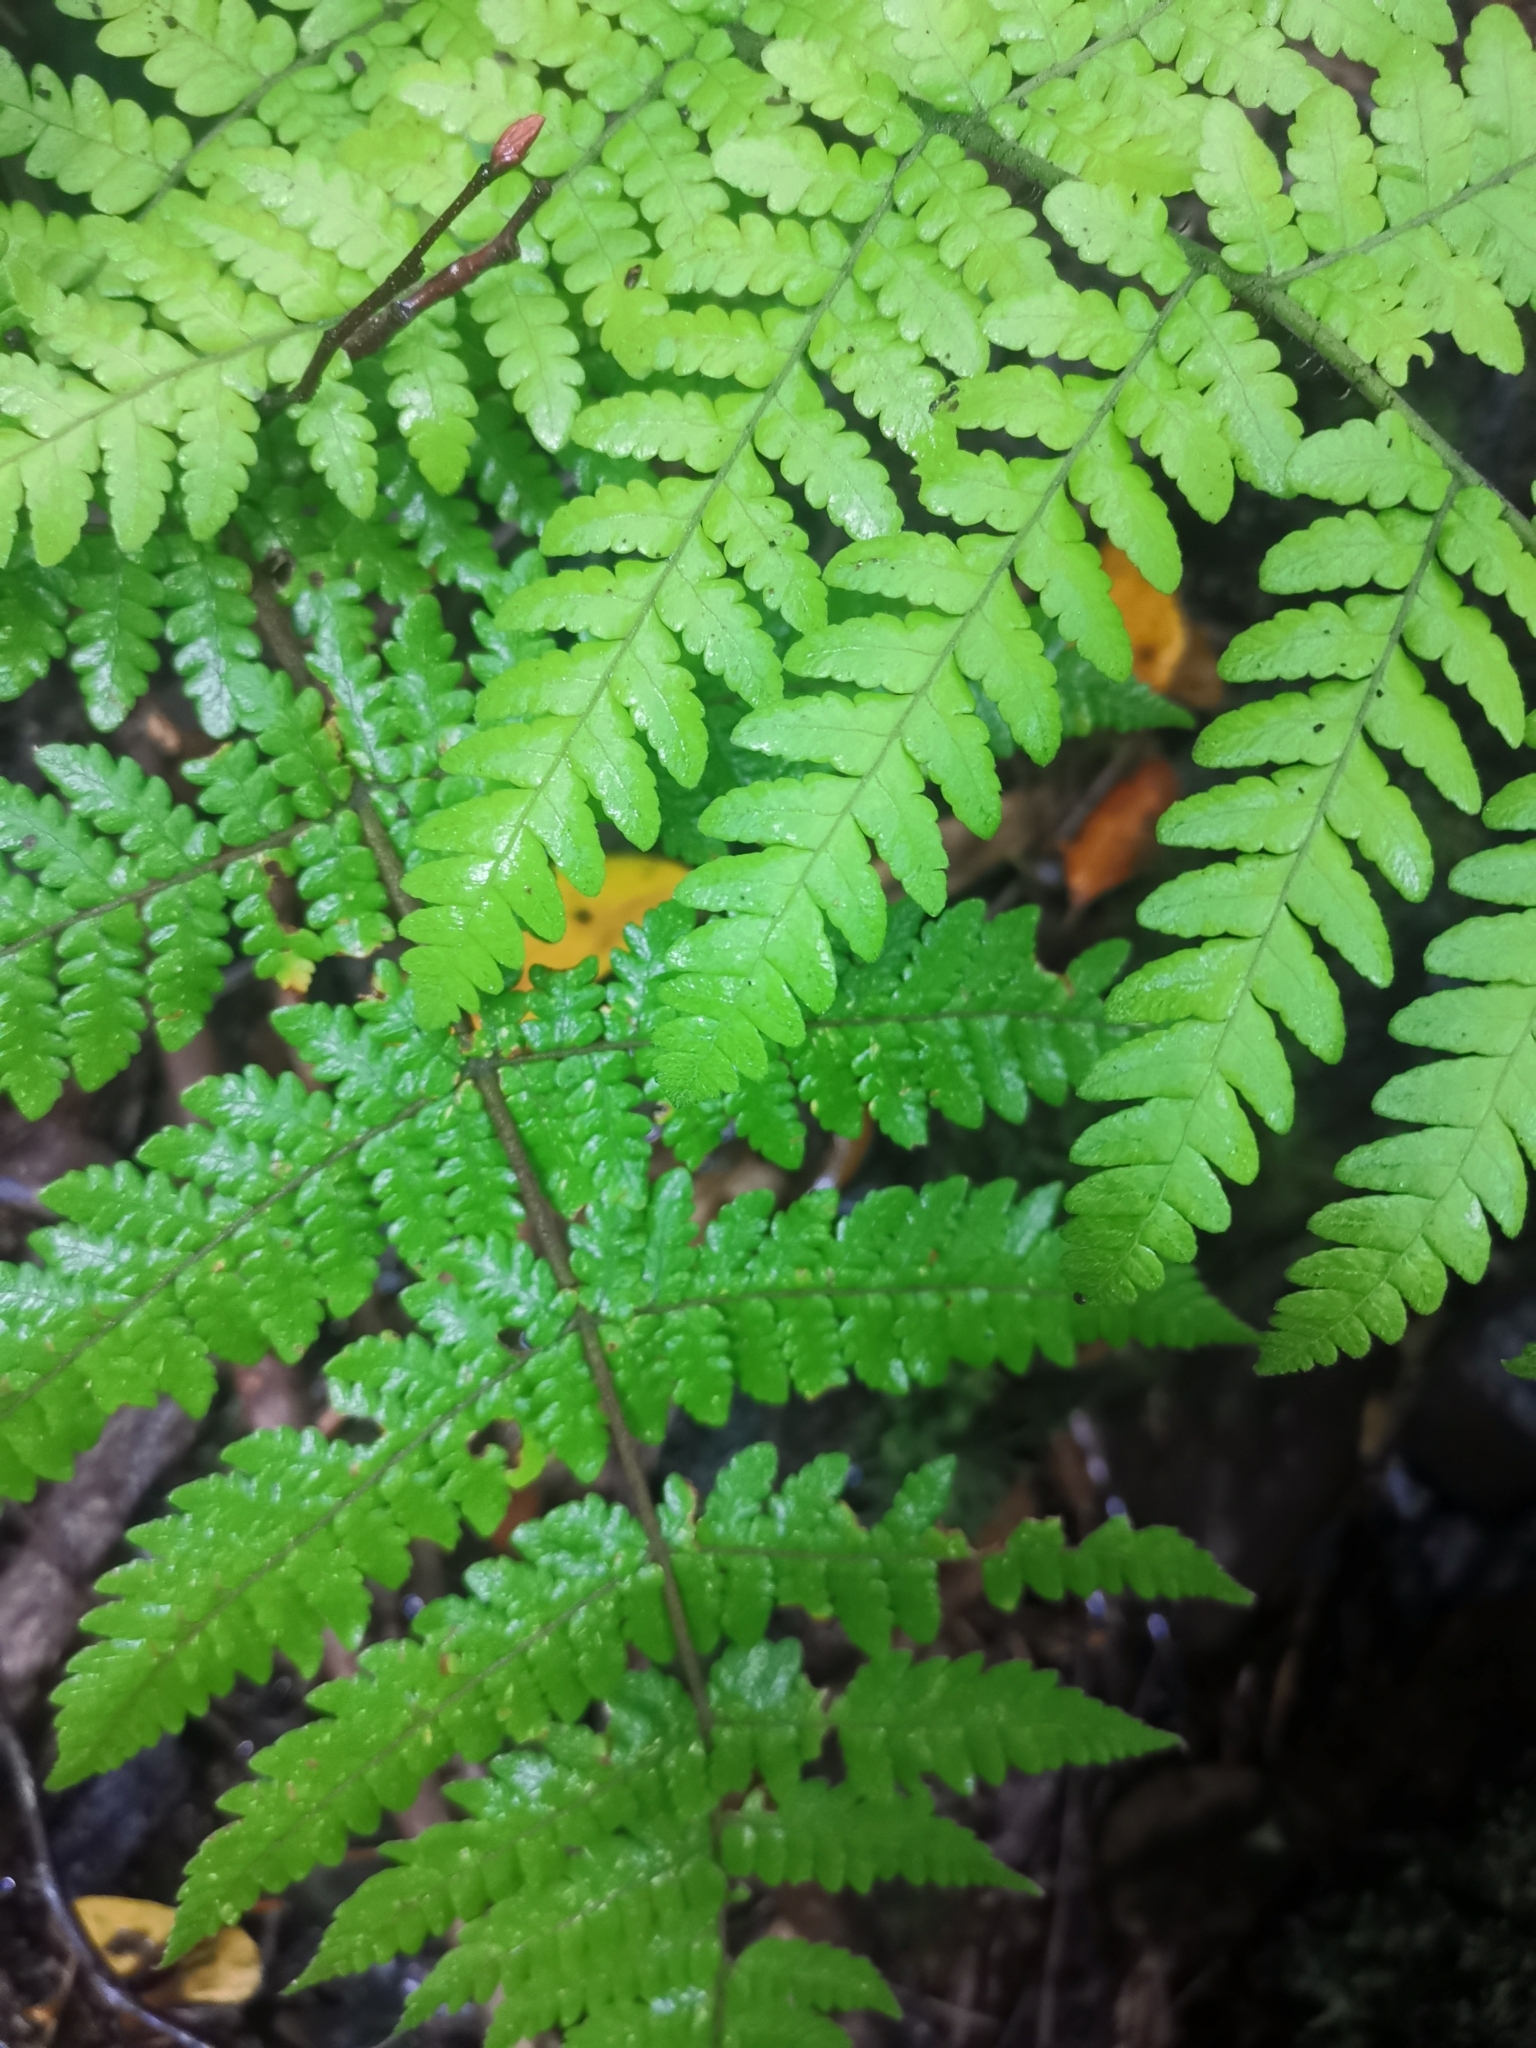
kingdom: Plantae
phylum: Tracheophyta
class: Polypodiopsida
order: Polypodiales
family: Dryopteridaceae
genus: Megalastrum
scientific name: Megalastrum spectabile
